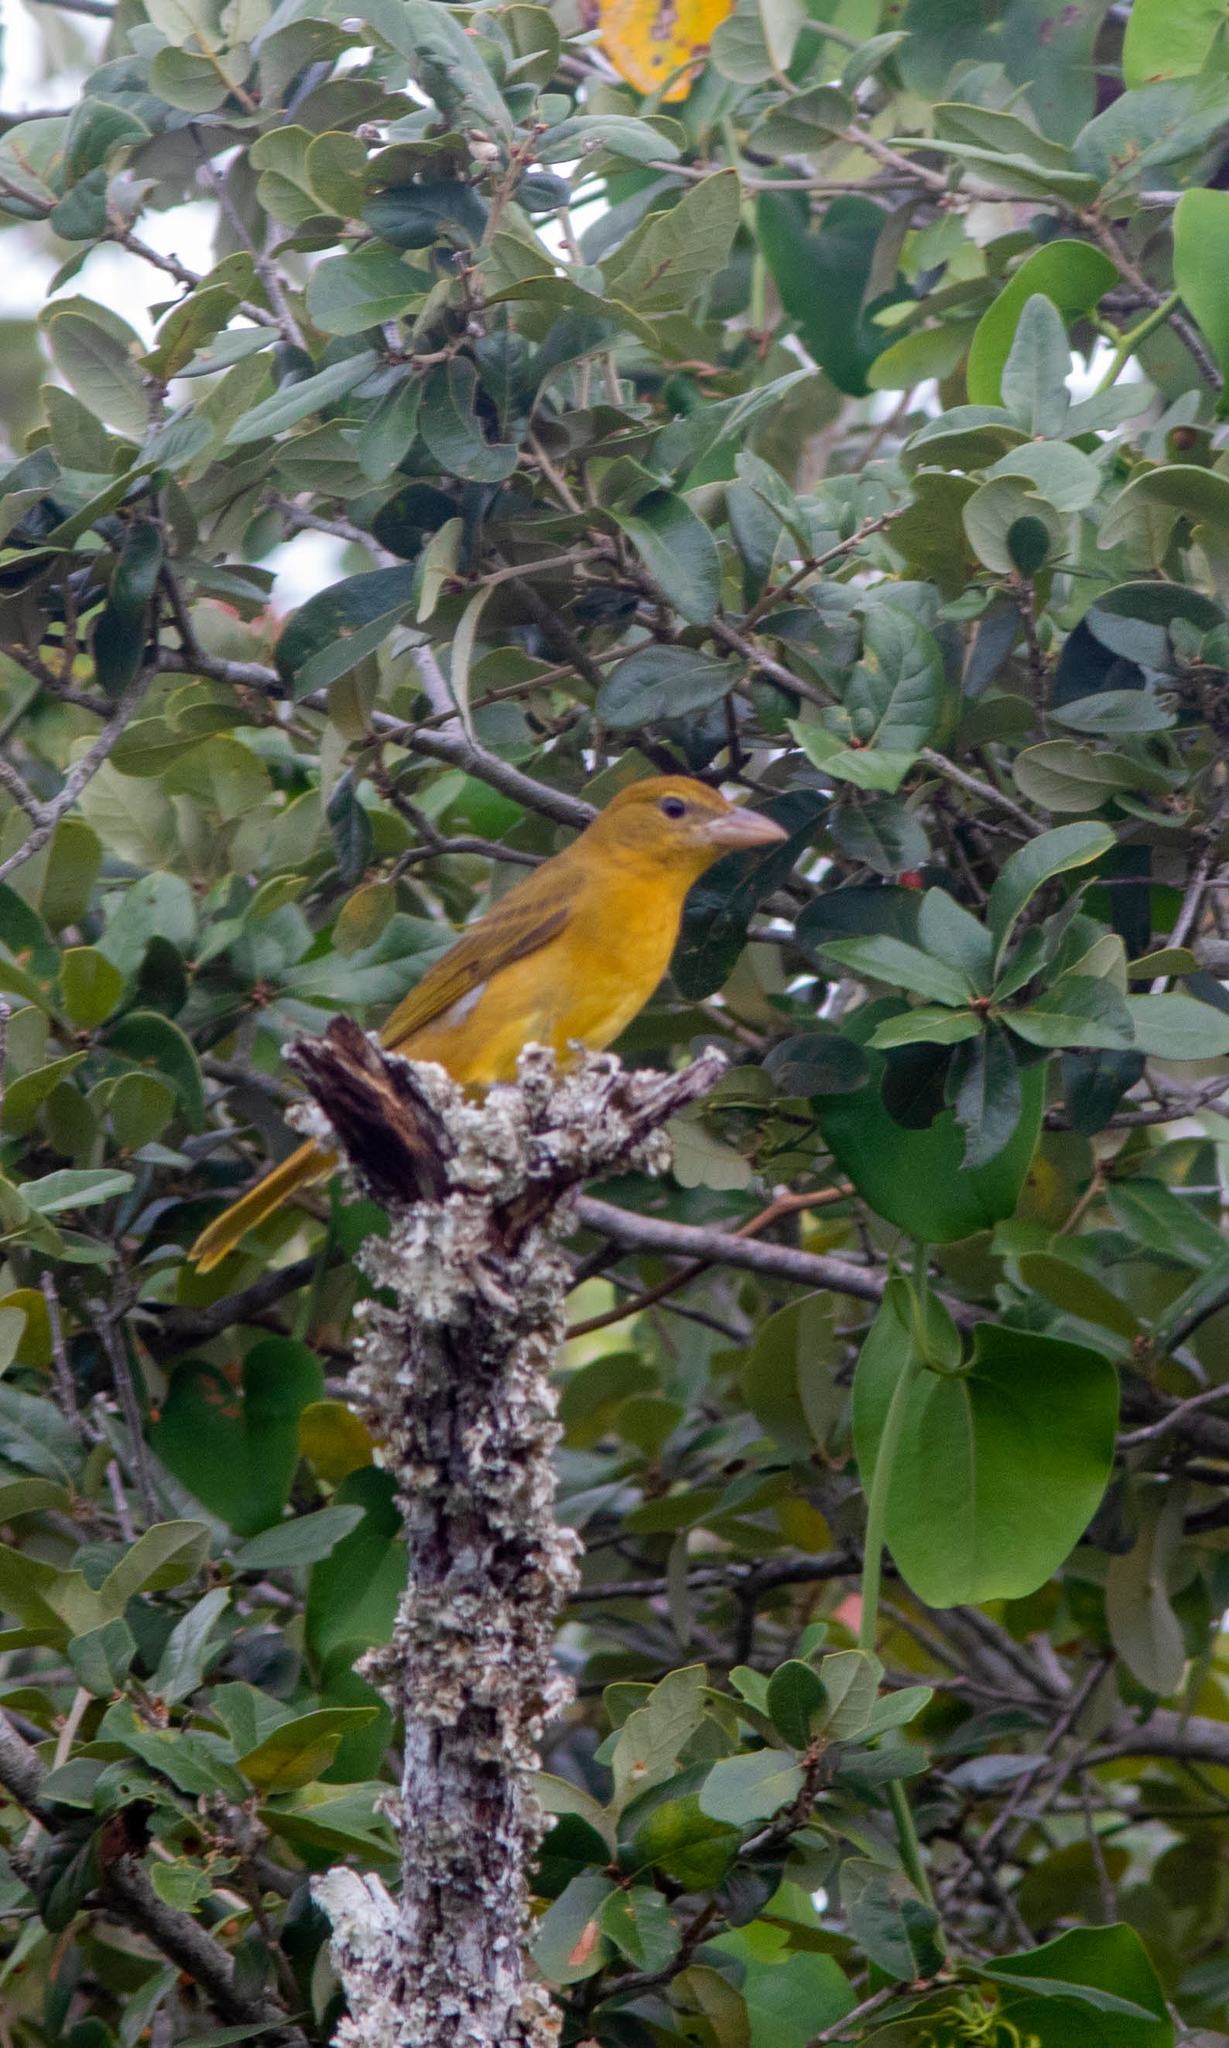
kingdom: Animalia
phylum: Chordata
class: Aves
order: Passeriformes
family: Cardinalidae
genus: Piranga
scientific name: Piranga rubra
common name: Summer tanager
